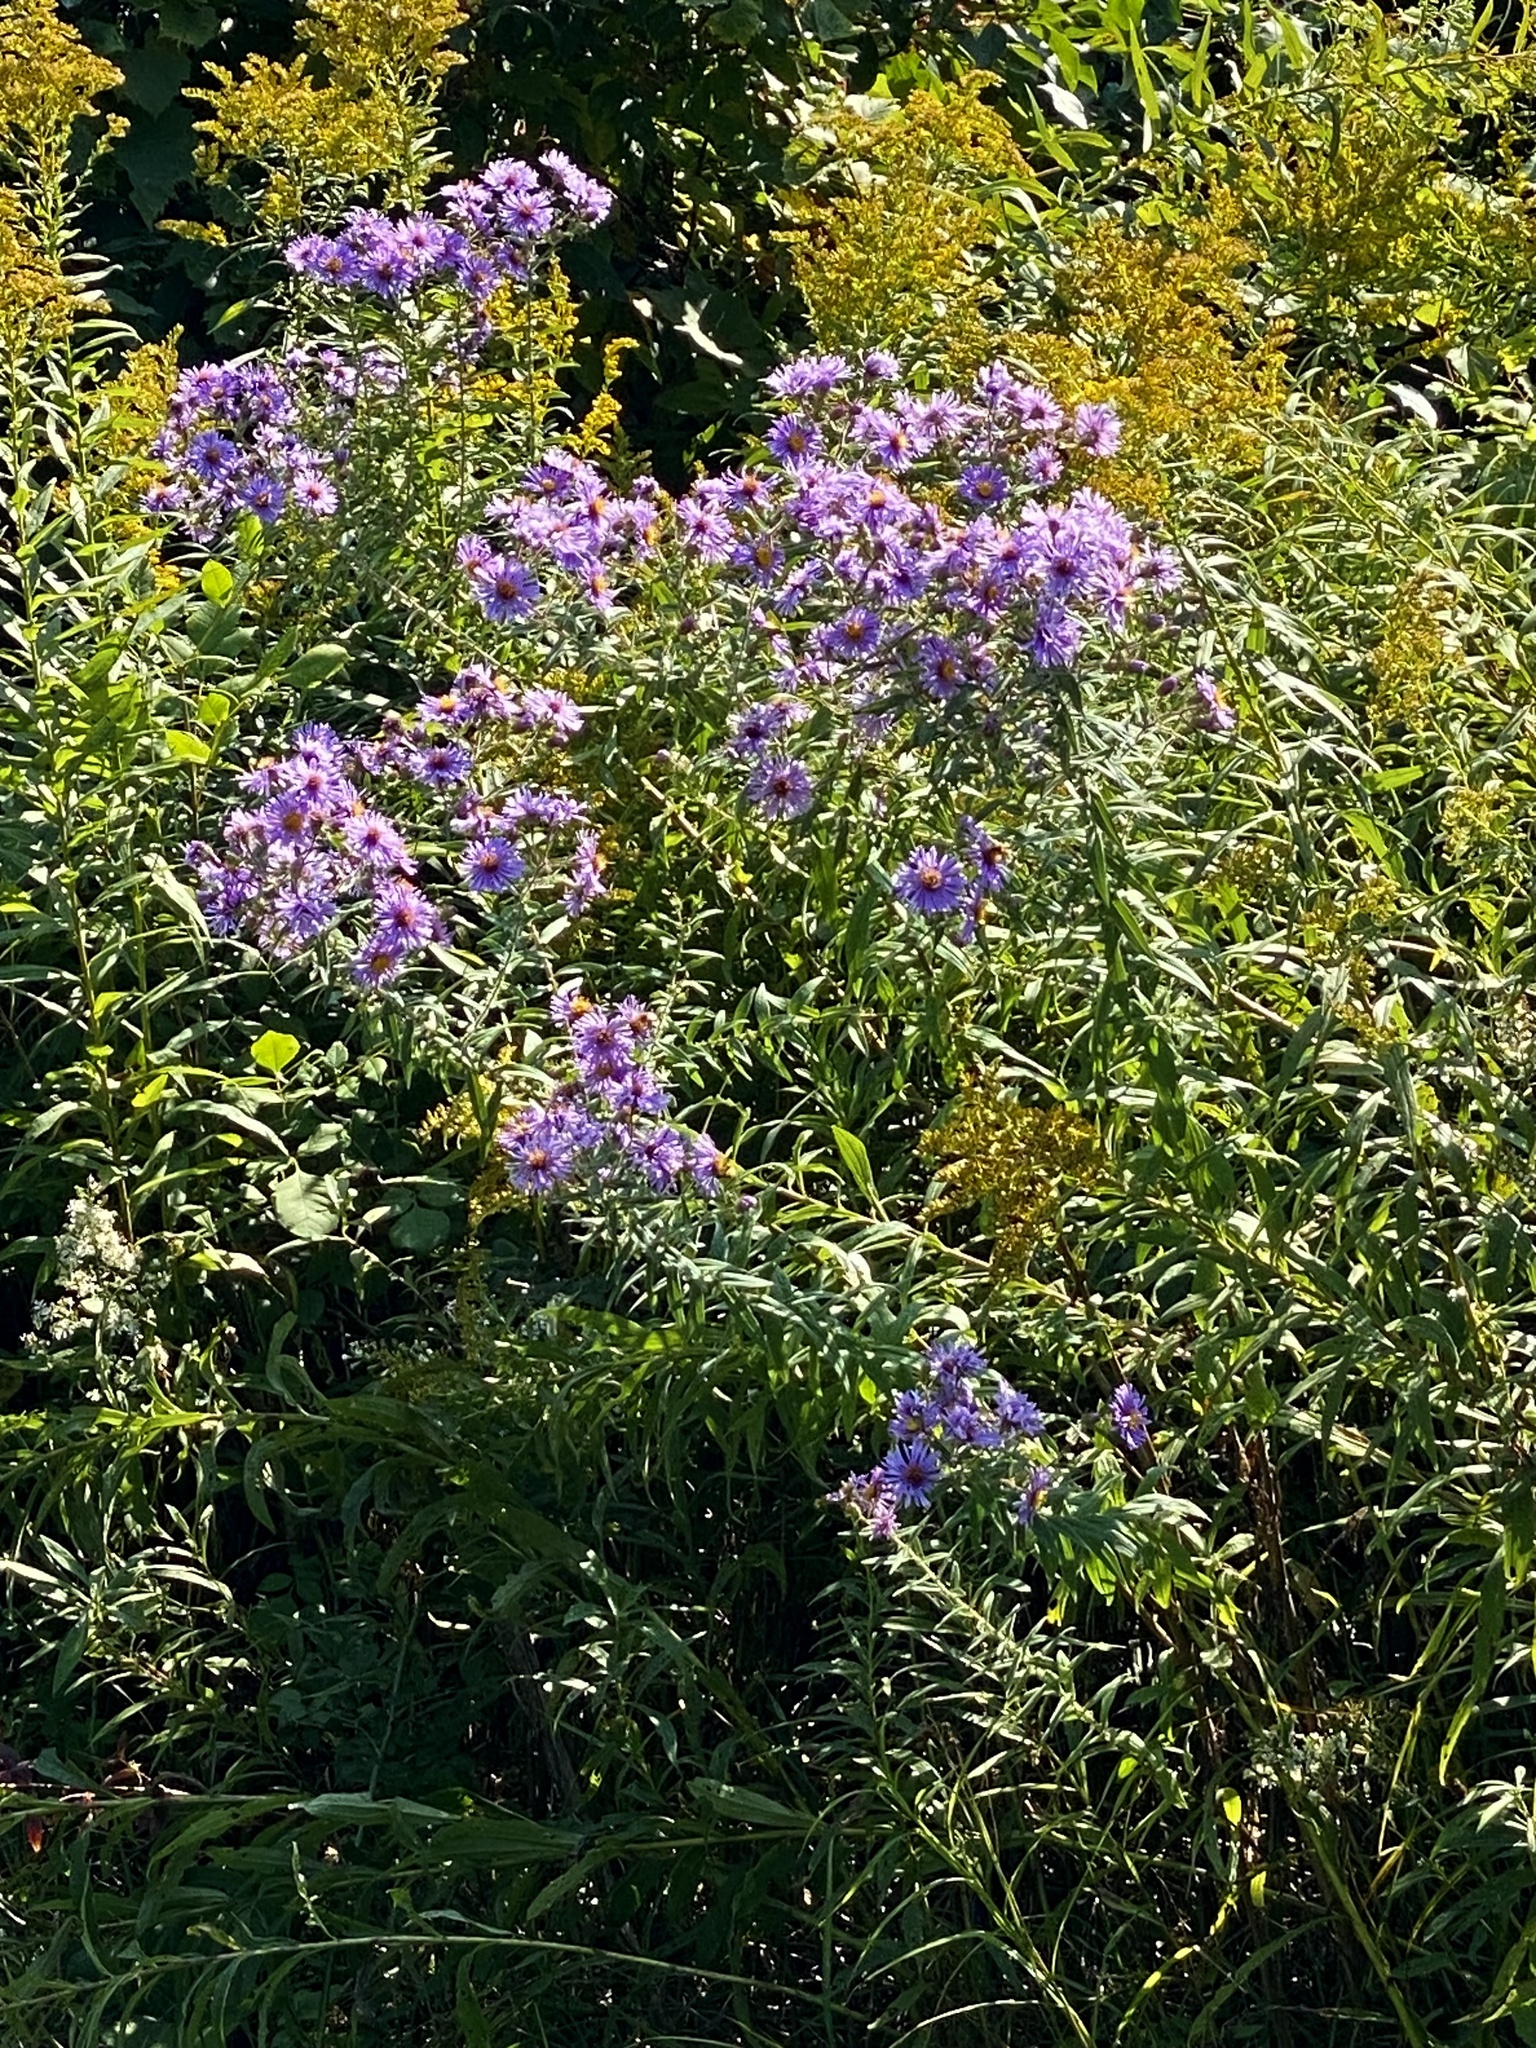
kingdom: Plantae
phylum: Tracheophyta
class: Magnoliopsida
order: Asterales
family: Asteraceae
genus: Symphyotrichum
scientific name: Symphyotrichum novae-angliae
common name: Michaelmas daisy
